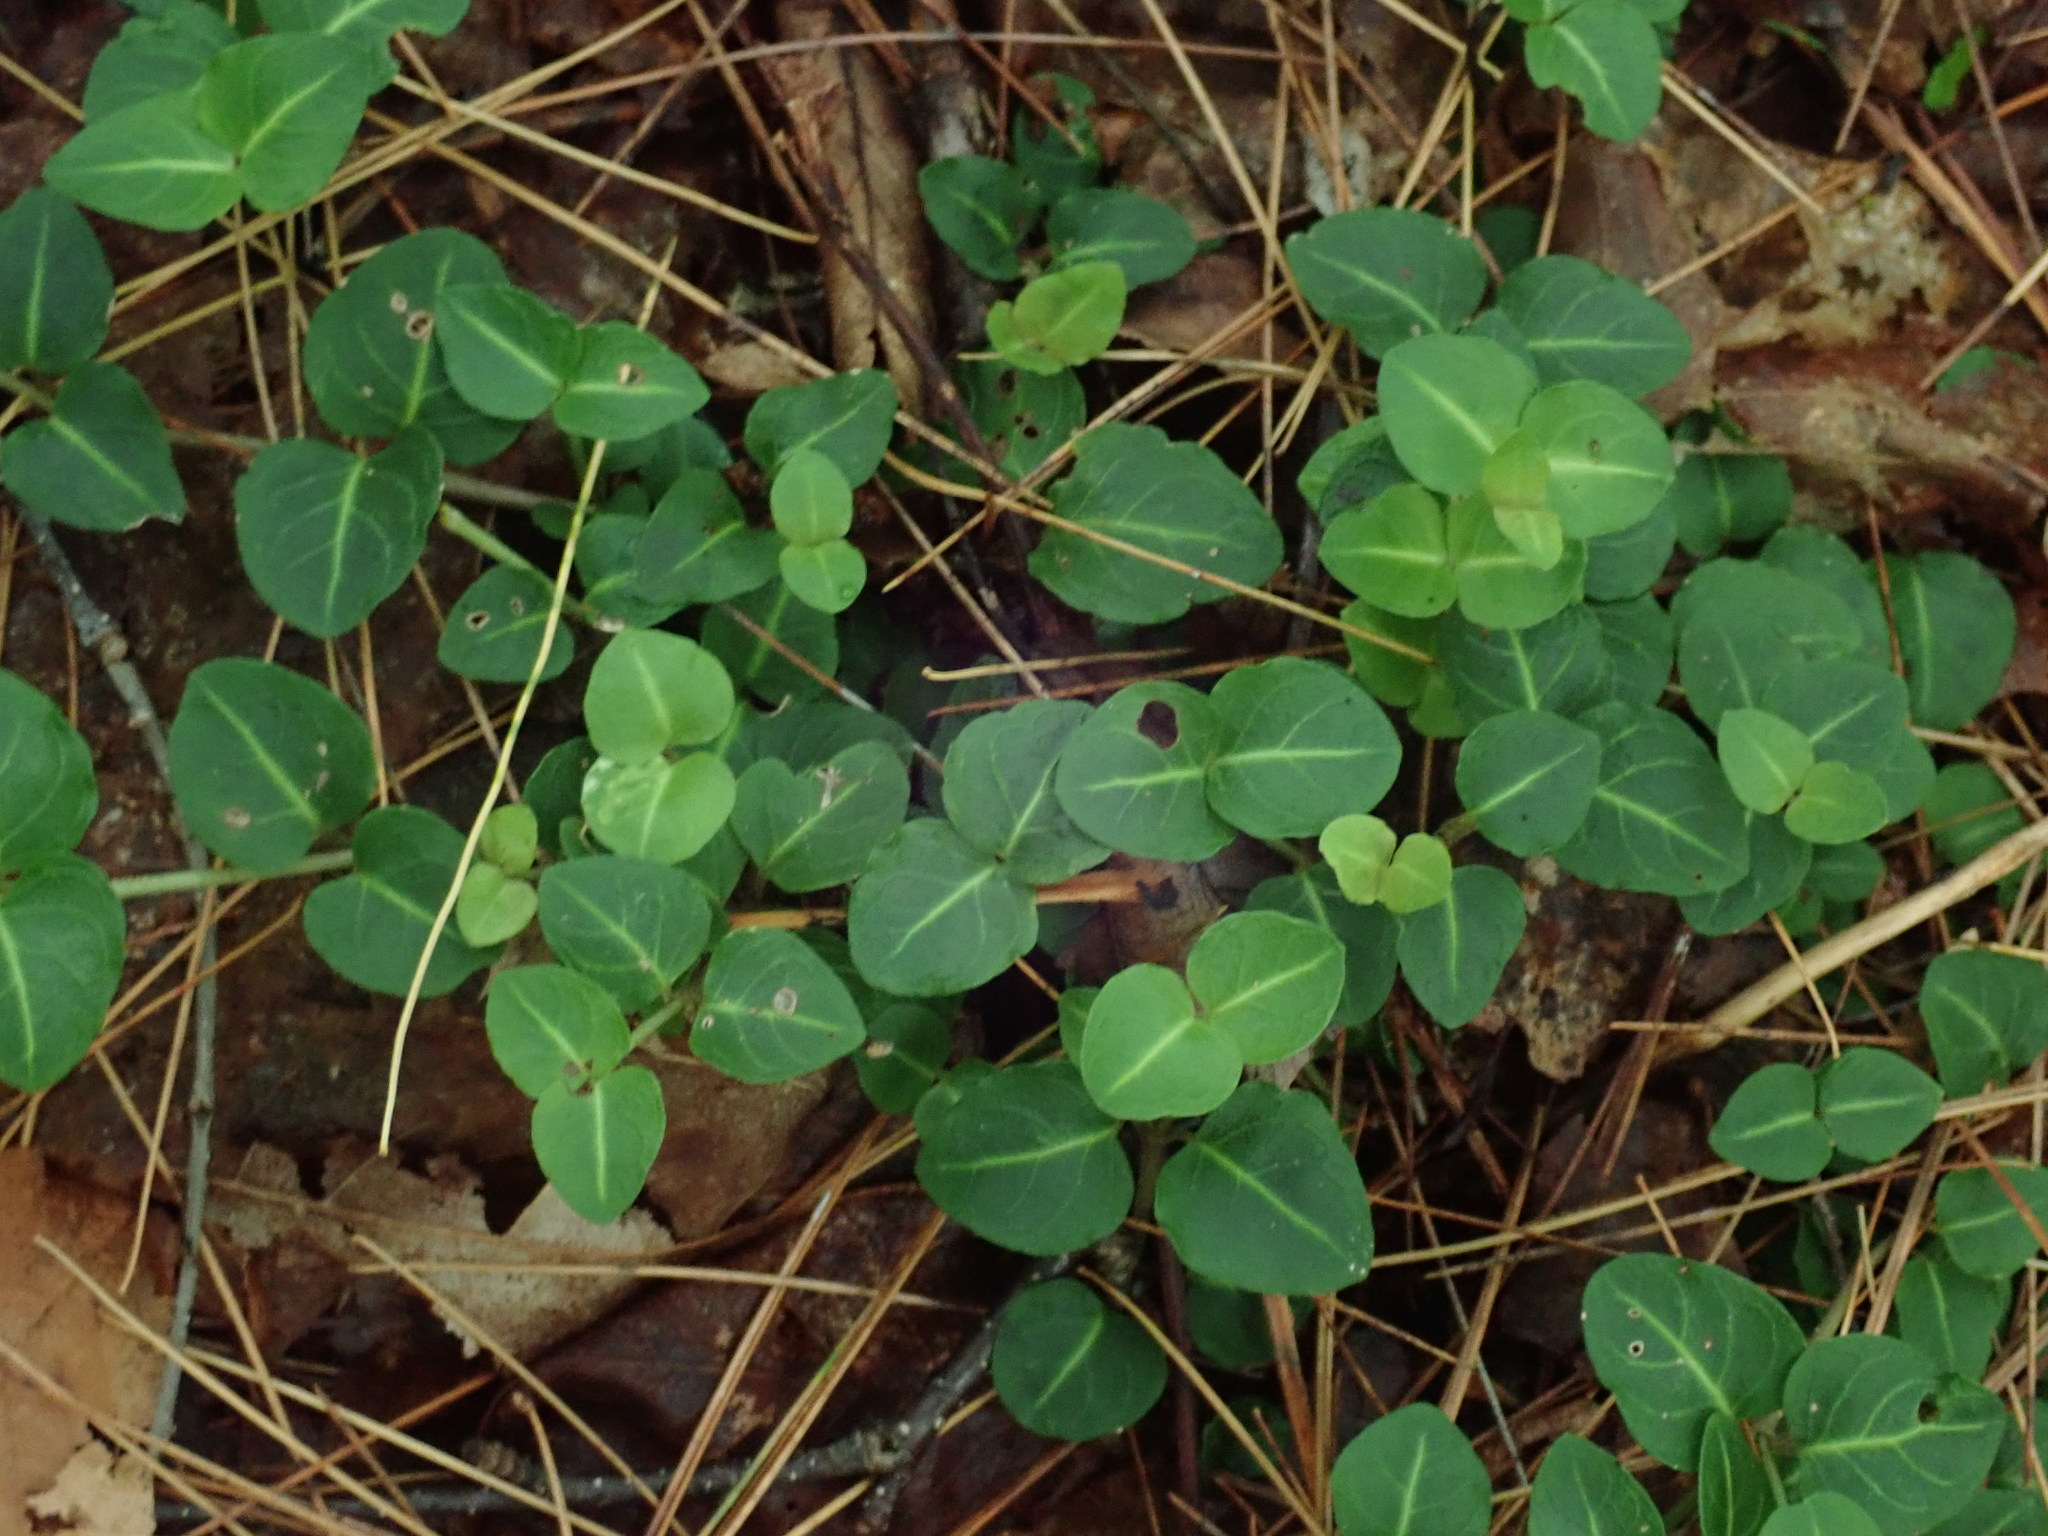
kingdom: Plantae
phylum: Tracheophyta
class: Magnoliopsida
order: Gentianales
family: Rubiaceae
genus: Mitchella
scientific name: Mitchella repens
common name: Partridge-berry
